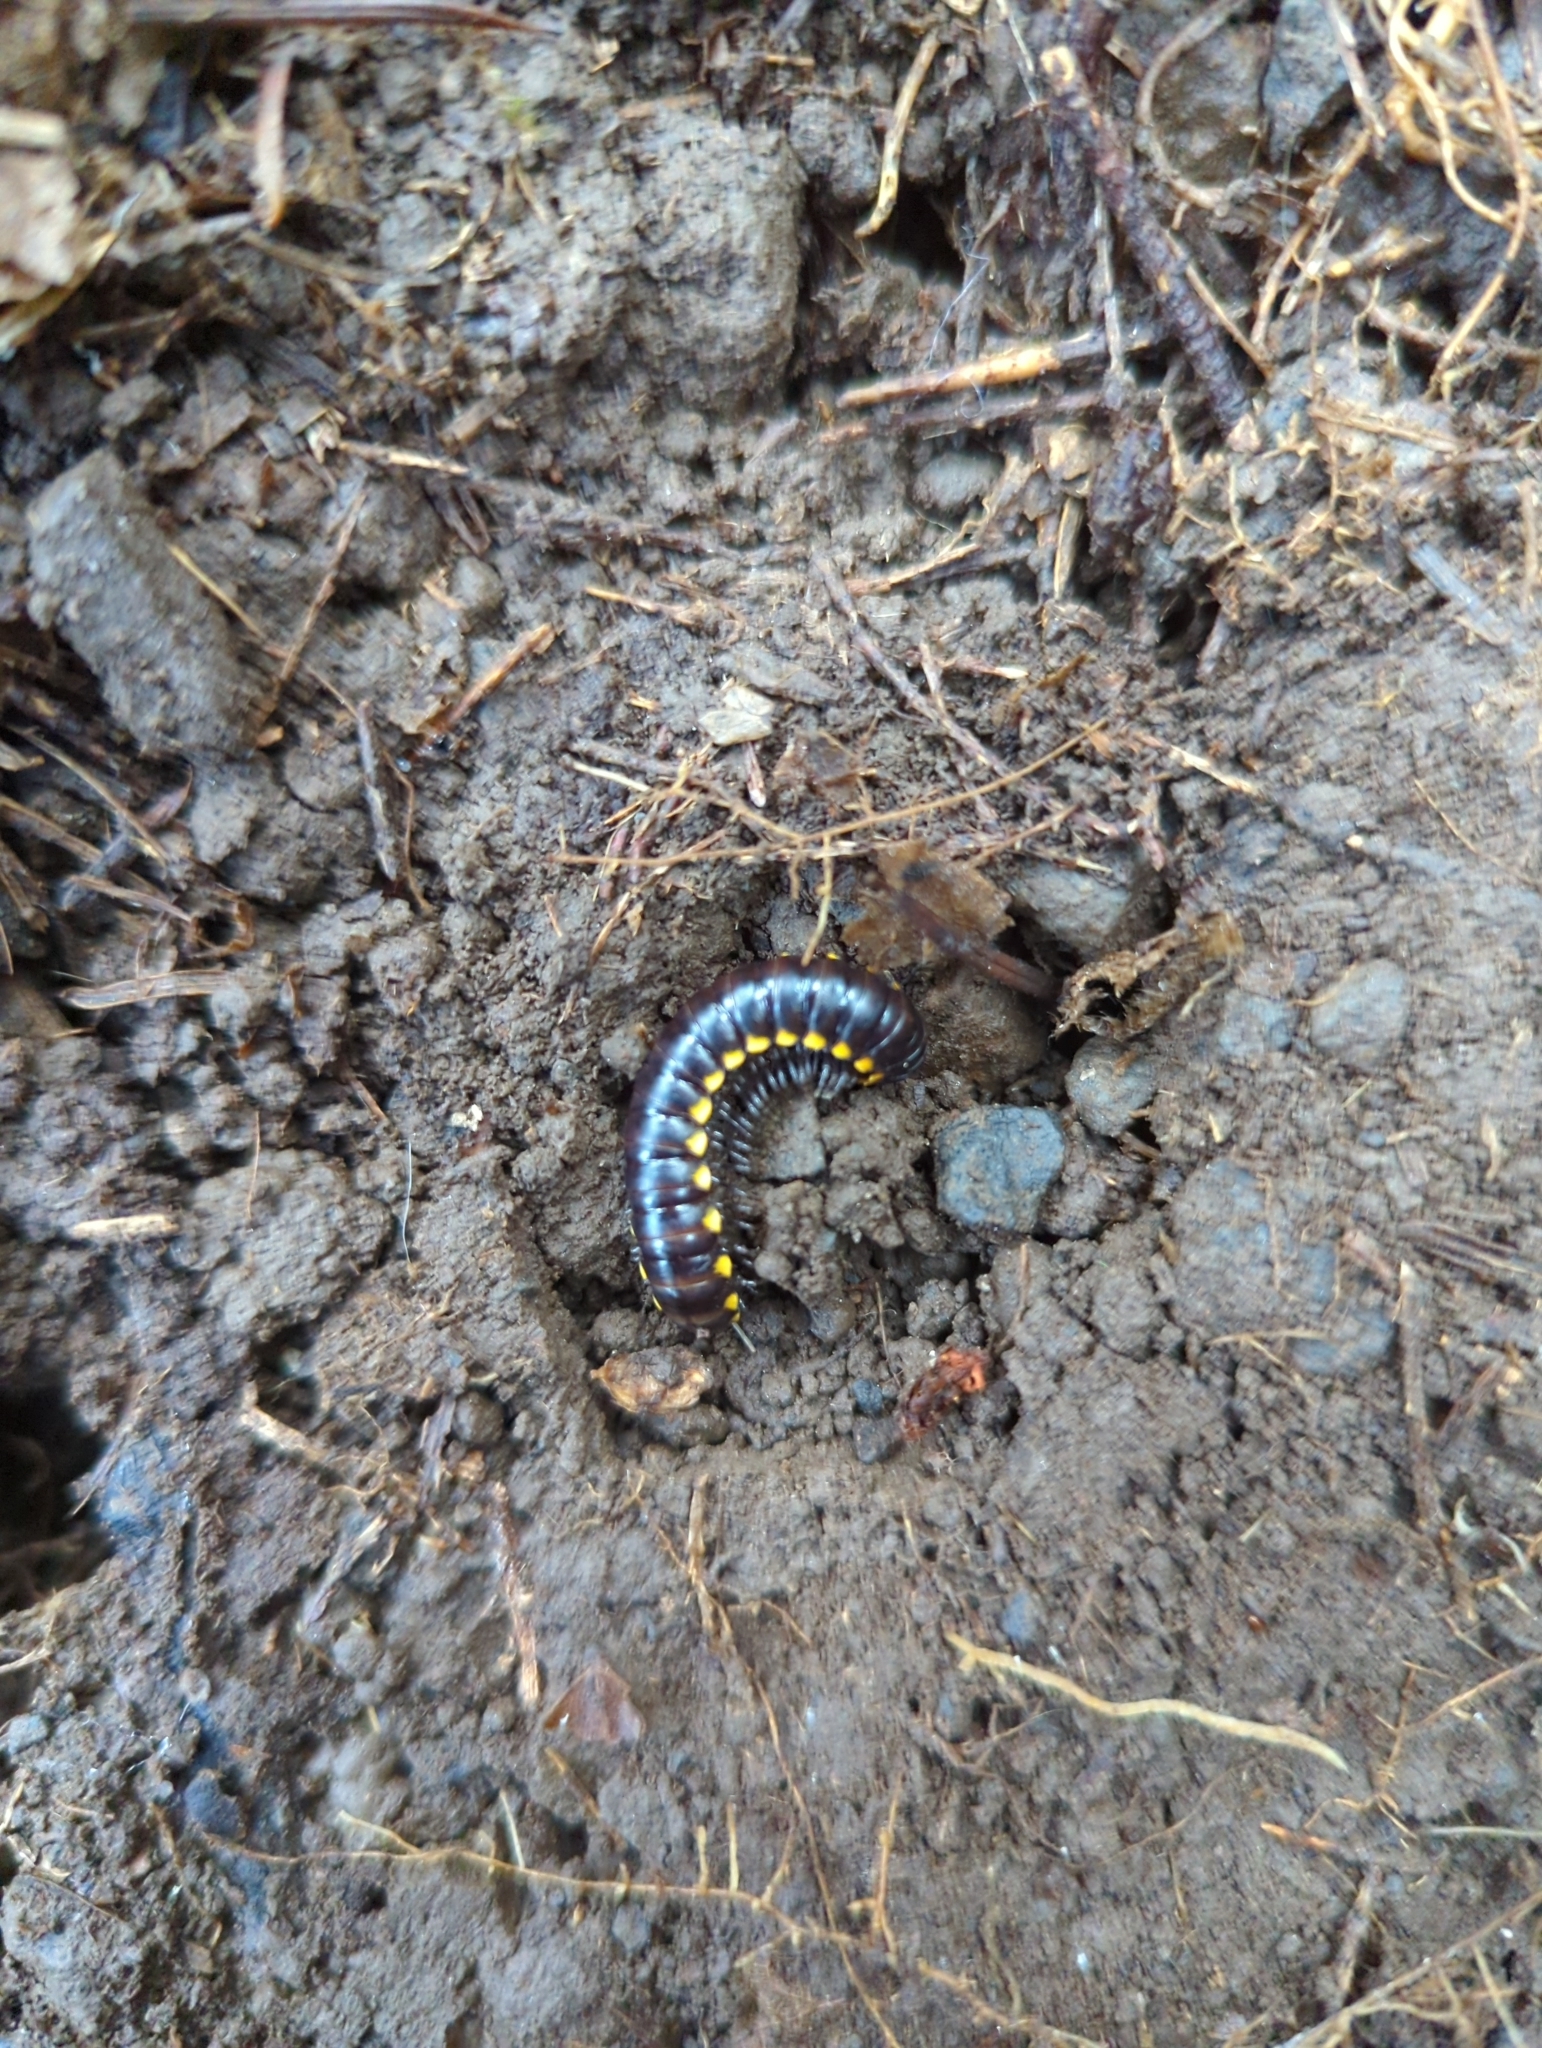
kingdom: Animalia
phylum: Arthropoda
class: Diplopoda
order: Polydesmida
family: Xystodesmidae
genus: Harpaphe
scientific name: Harpaphe haydeniana
